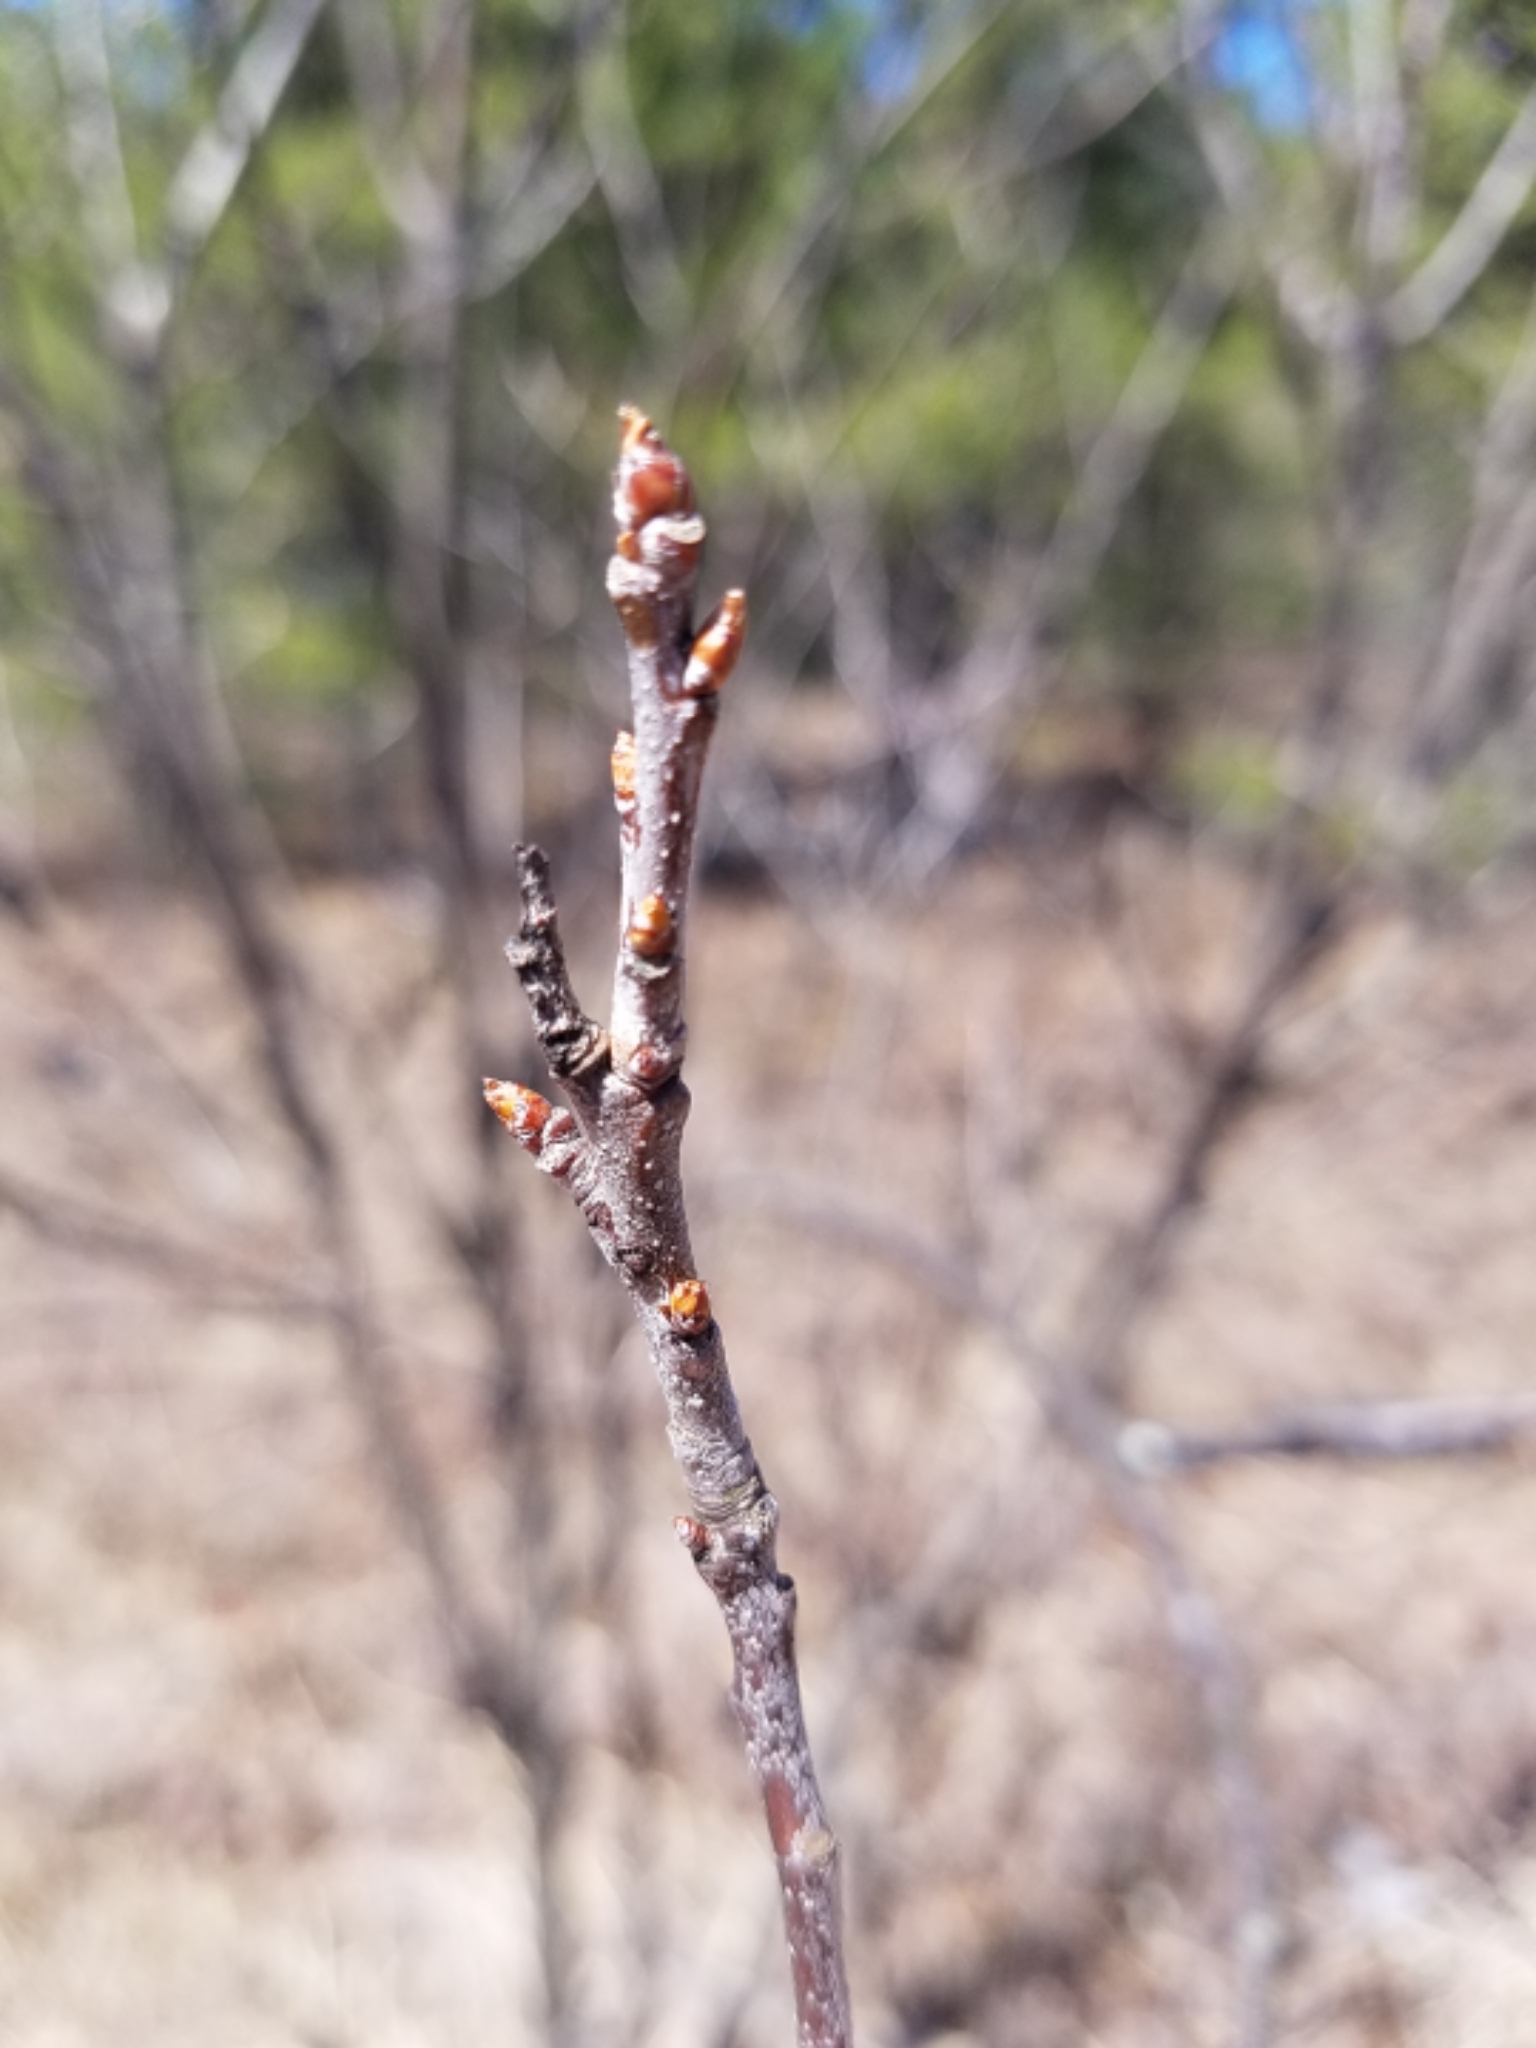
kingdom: Plantae
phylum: Tracheophyta
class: Magnoliopsida
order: Rosales
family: Rosaceae
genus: Prunus
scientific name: Prunus serotina
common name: Black cherry
